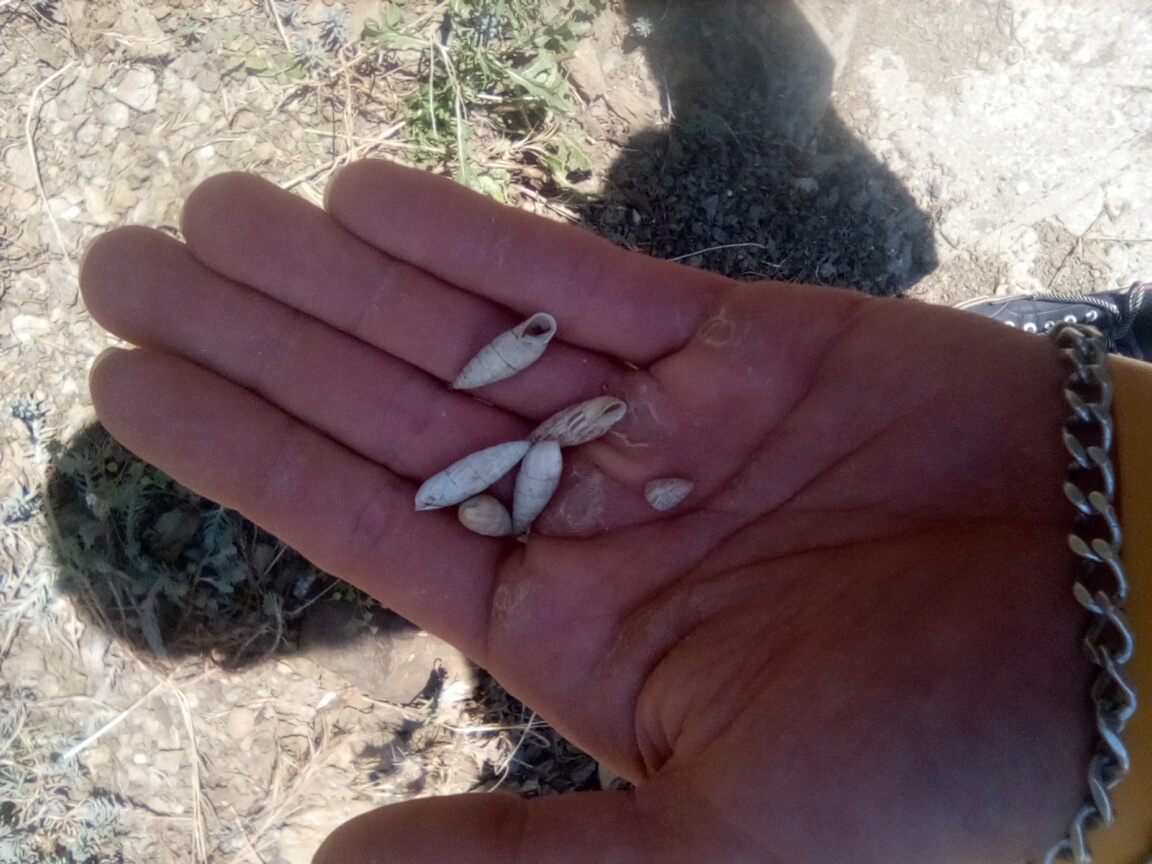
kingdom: Animalia
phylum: Mollusca
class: Gastropoda
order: Stylommatophora
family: Enidae
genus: Brephulopsis
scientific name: Brephulopsis cylindrica
